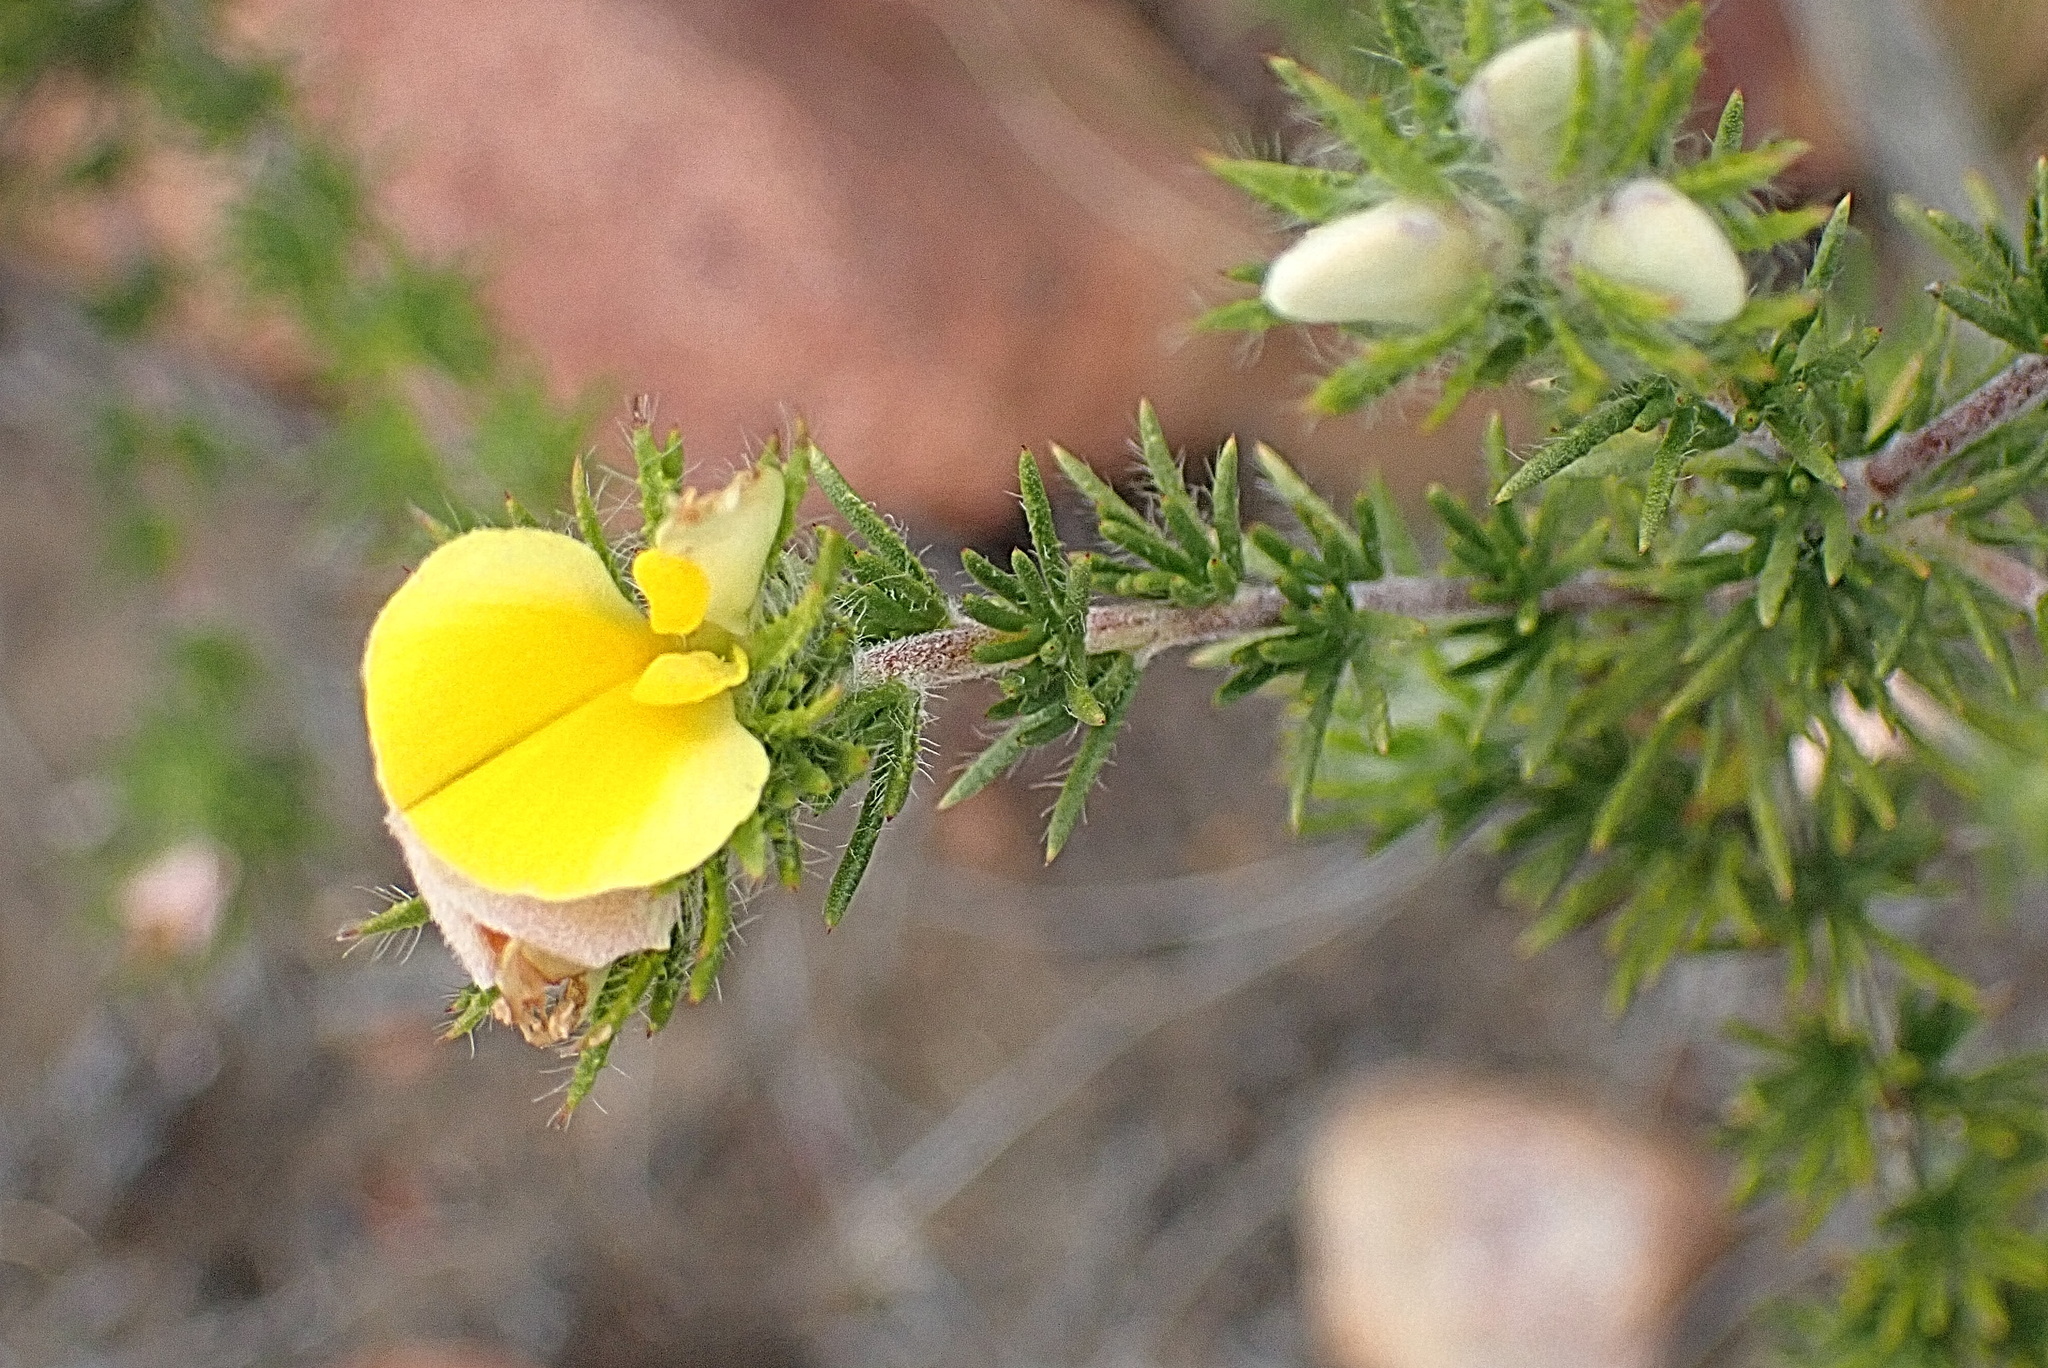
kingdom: Plantae
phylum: Tracheophyta
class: Magnoliopsida
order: Fabales
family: Fabaceae
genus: Aspalathus
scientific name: Aspalathus hirta
